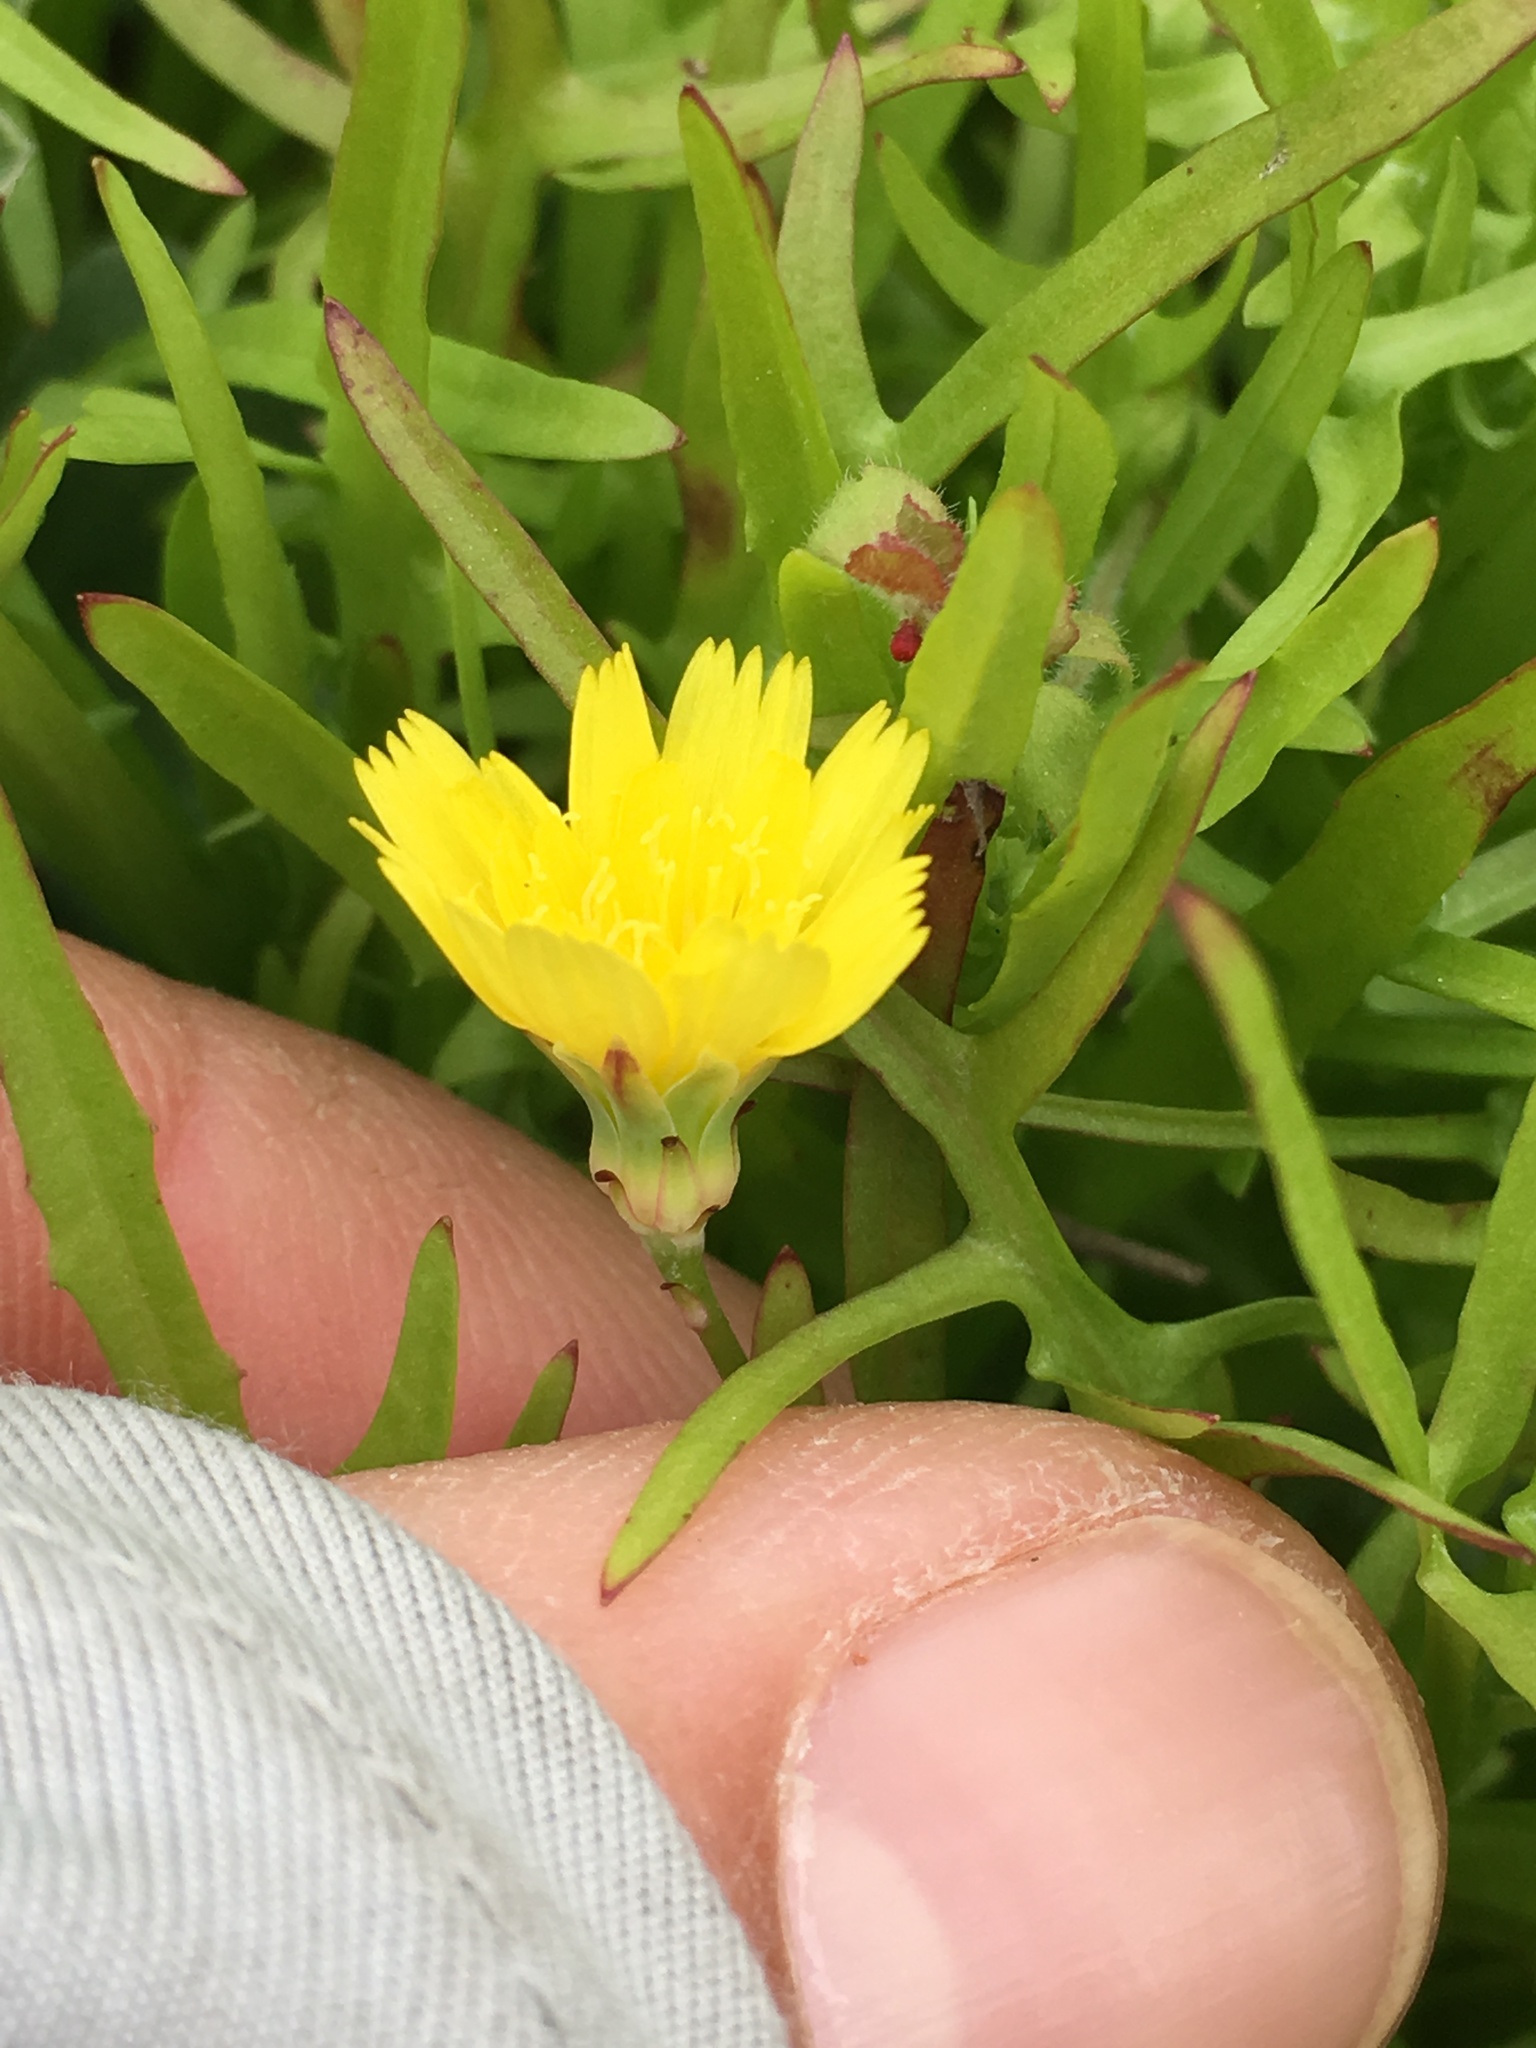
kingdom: Plantae
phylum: Tracheophyta
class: Magnoliopsida
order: Asterales
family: Asteraceae
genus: Malacothrix
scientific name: Malacothrix foliosa
